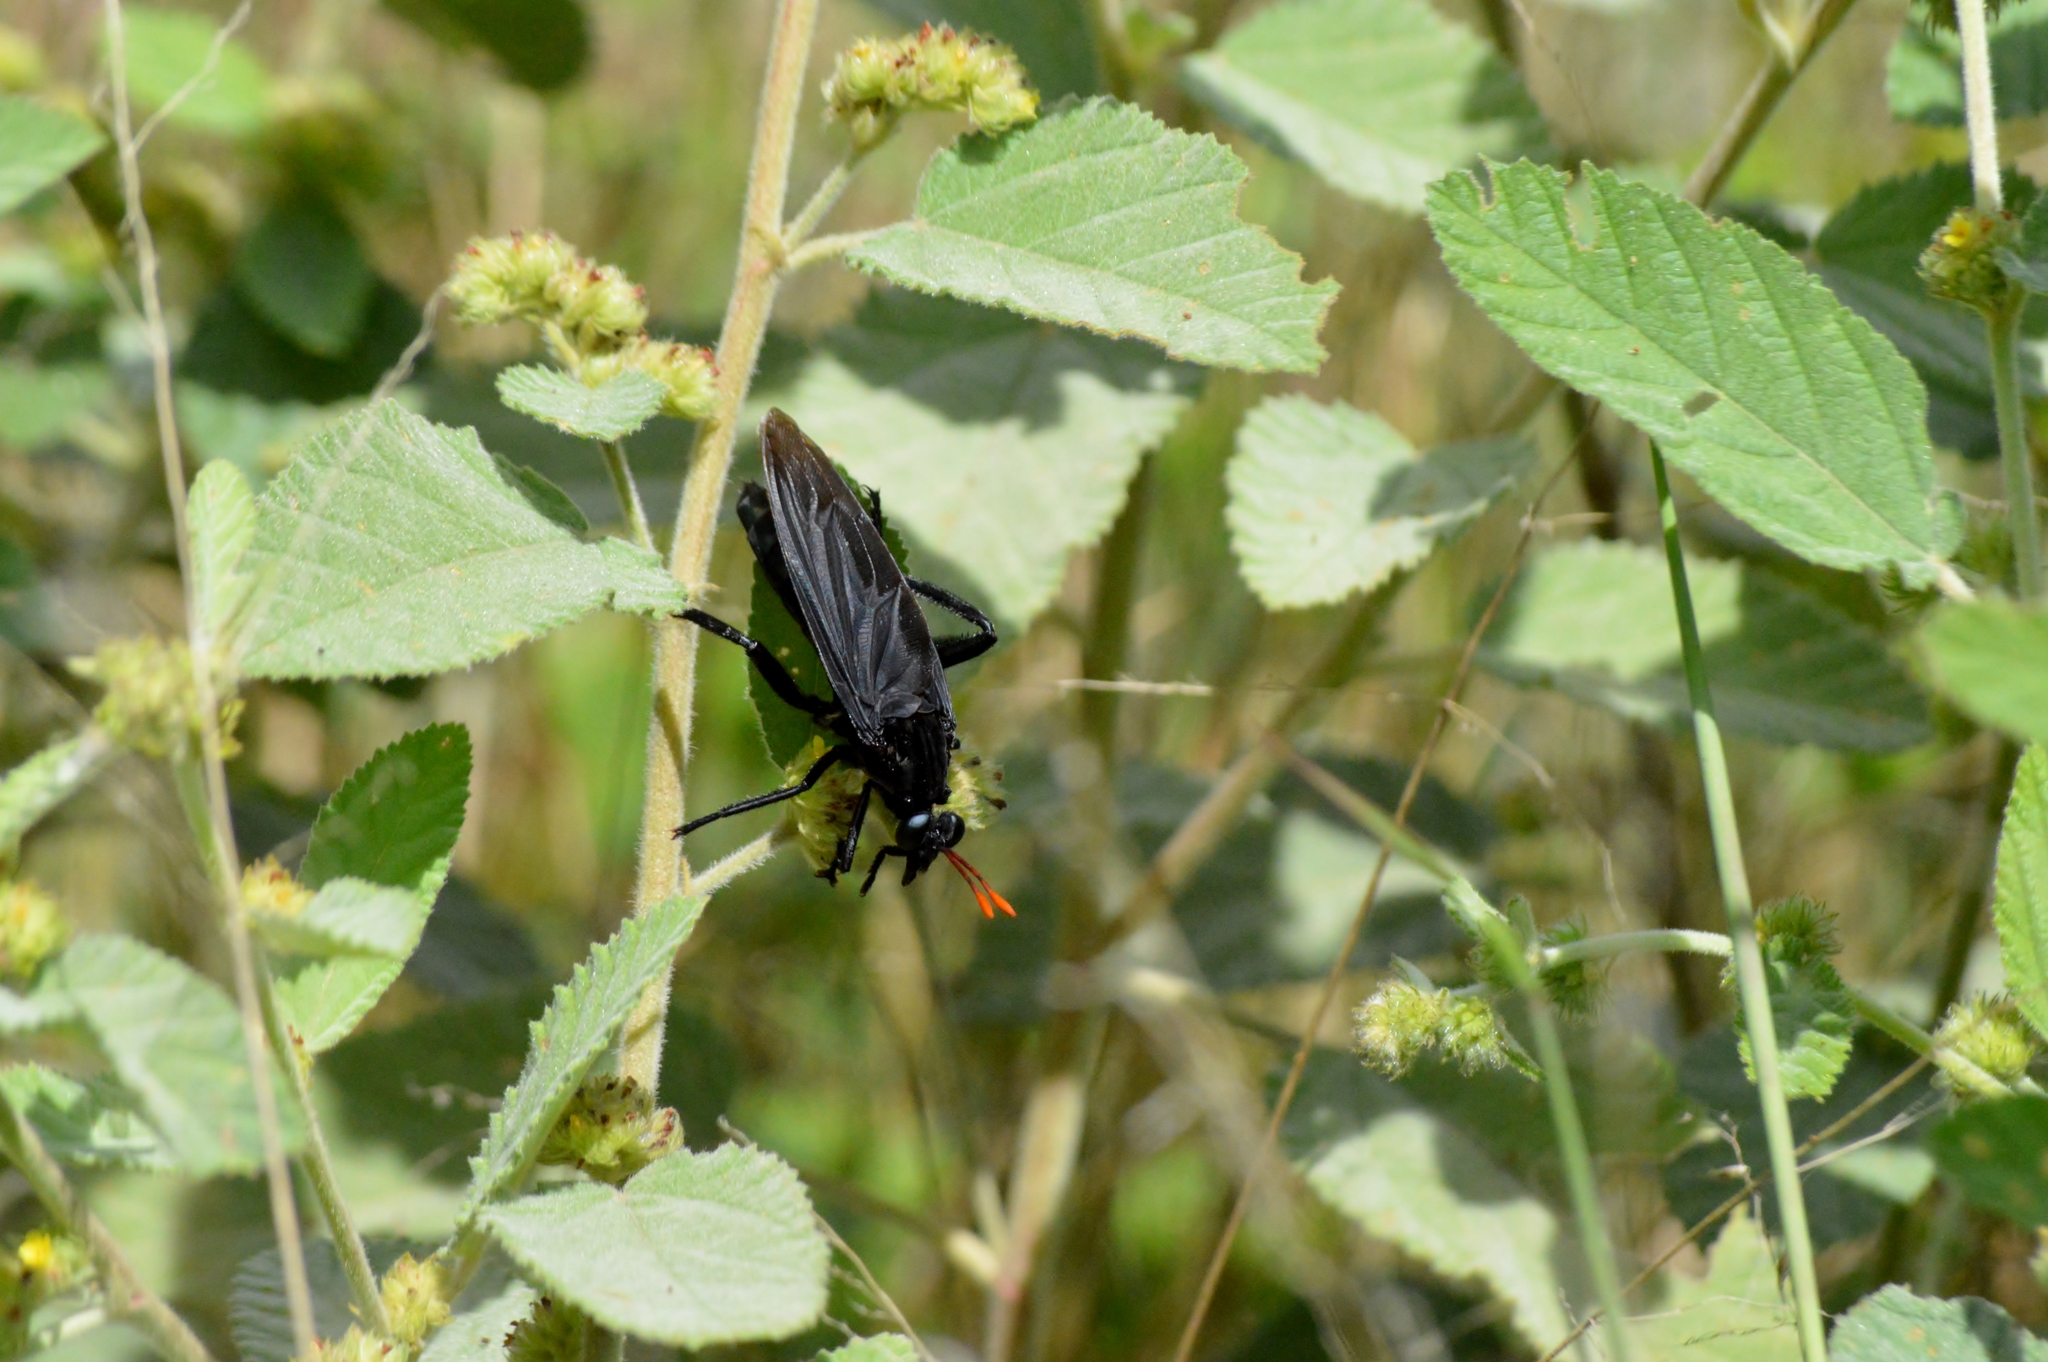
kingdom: Animalia
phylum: Arthropoda
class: Insecta
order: Diptera
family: Mydidae
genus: Gauromydas
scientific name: Gauromydas heros
